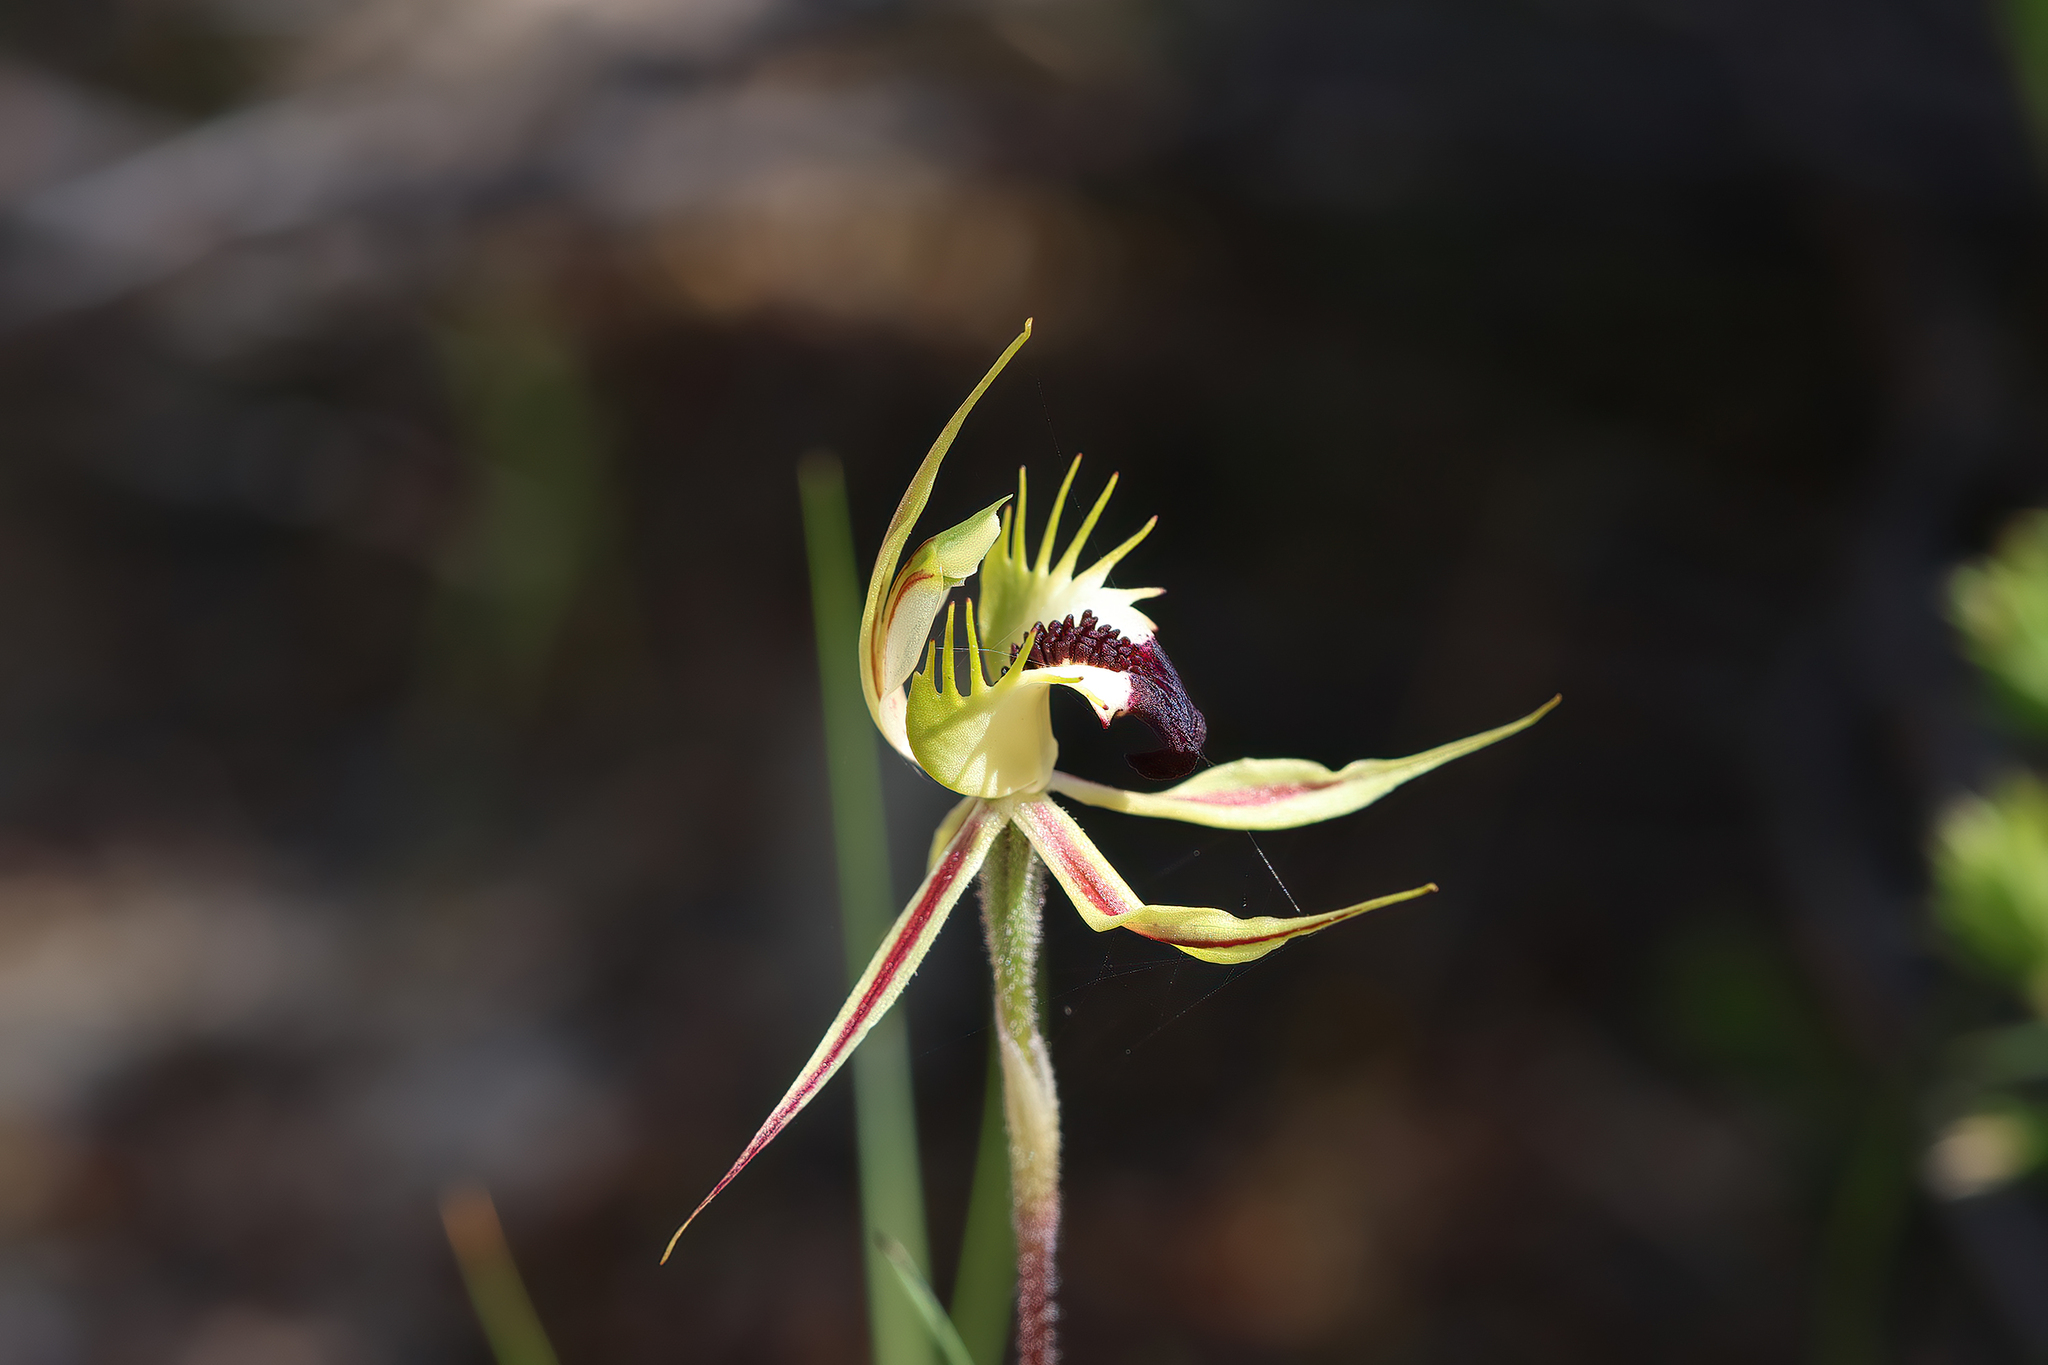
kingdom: Plantae
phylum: Tracheophyta
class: Liliopsida
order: Asparagales
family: Orchidaceae
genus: Caladenia
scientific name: Caladenia stricta
